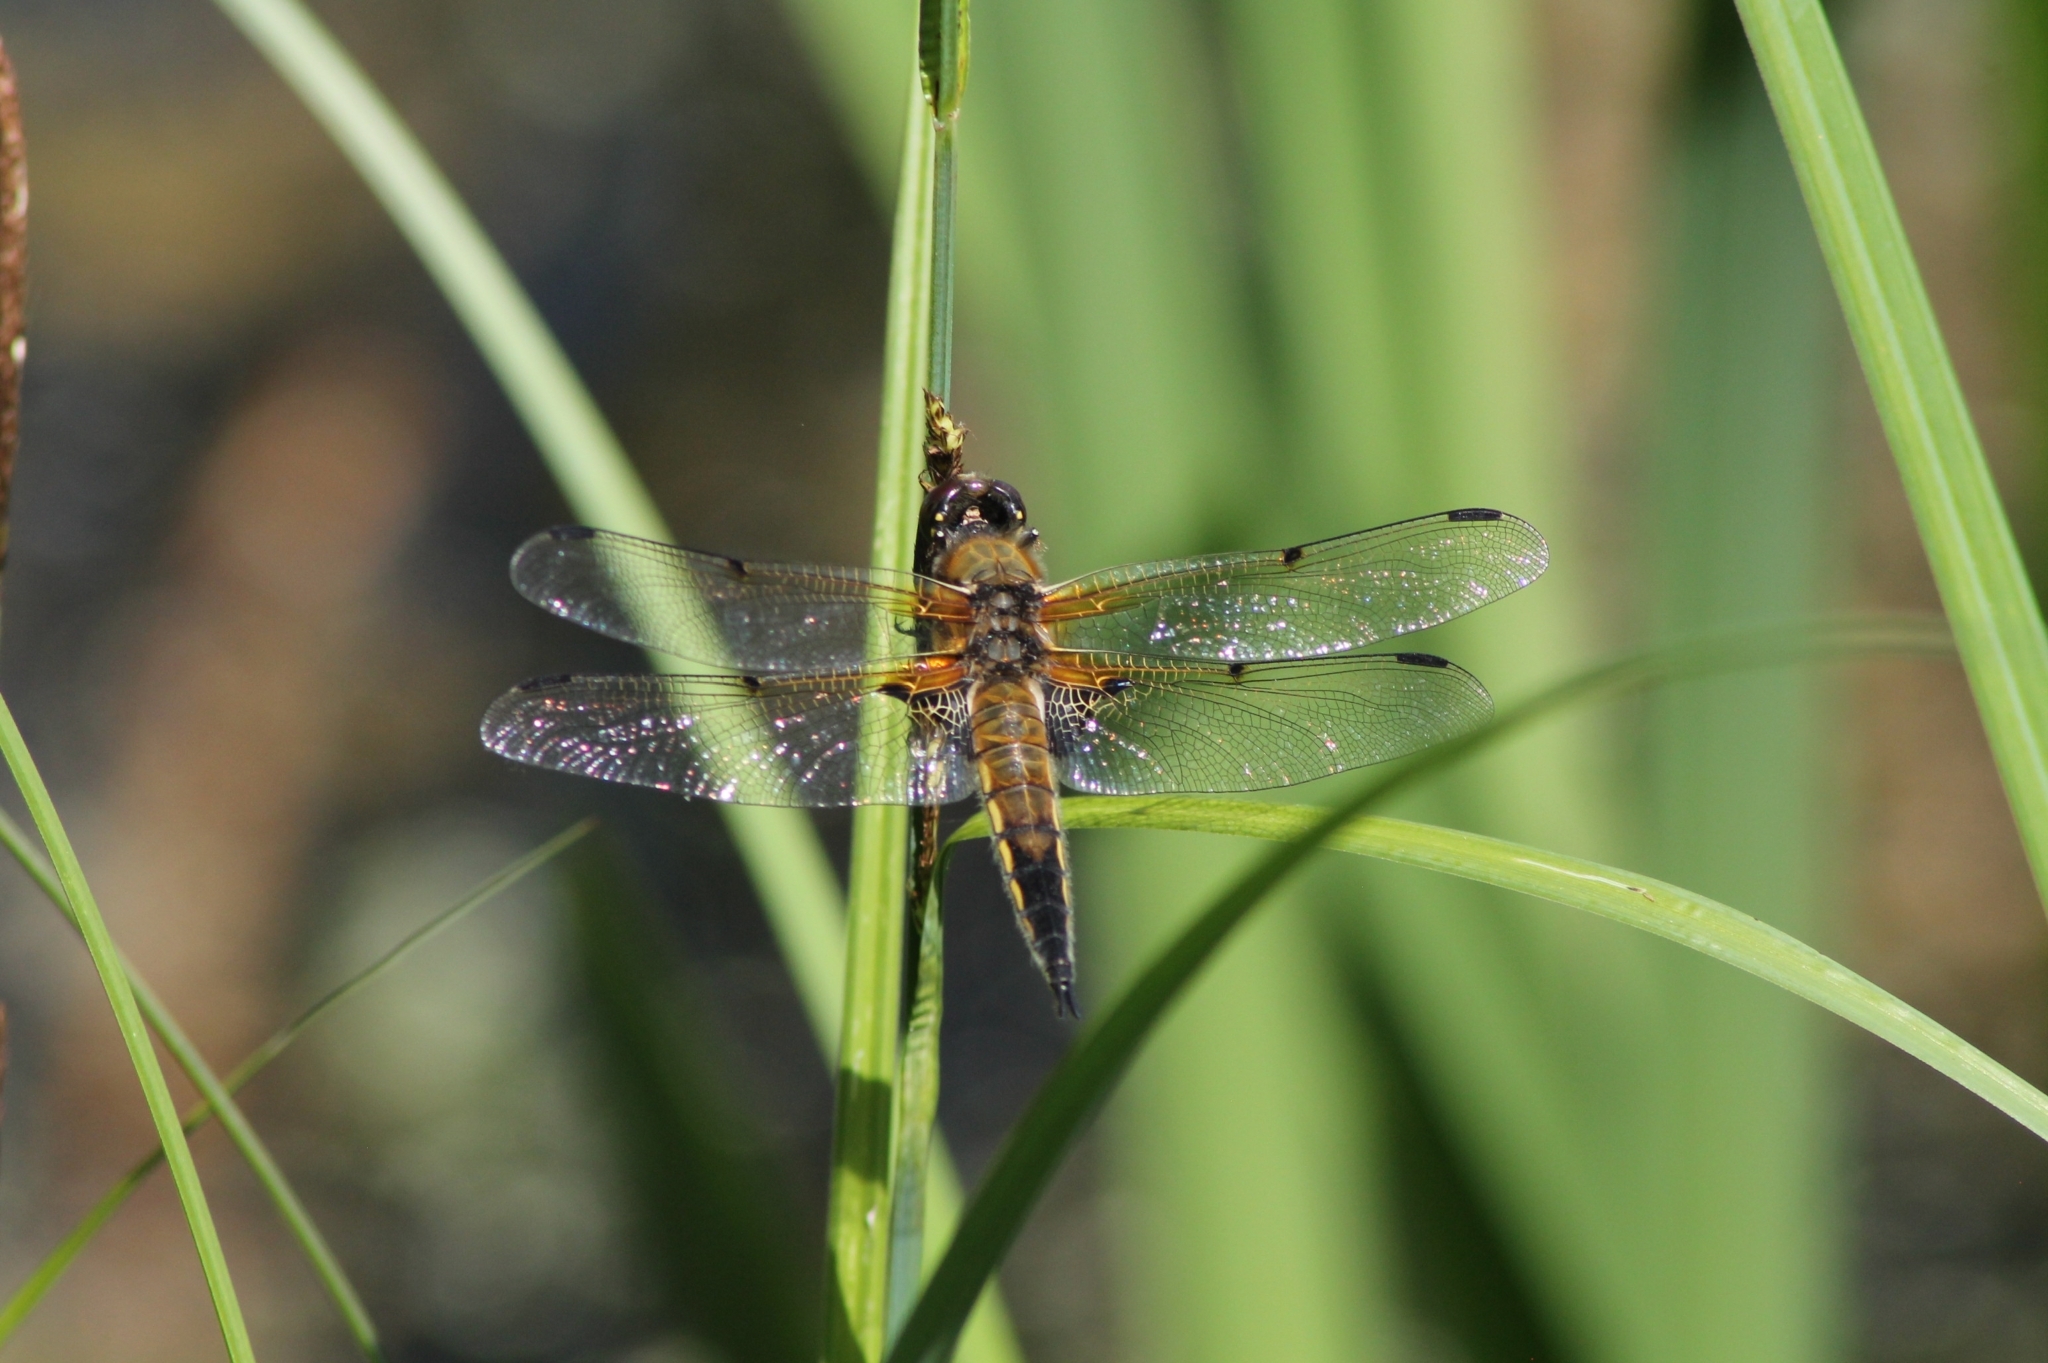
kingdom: Animalia
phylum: Arthropoda
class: Insecta
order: Odonata
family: Libellulidae
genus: Libellula
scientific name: Libellula quadrimaculata
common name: Four-spotted chaser
